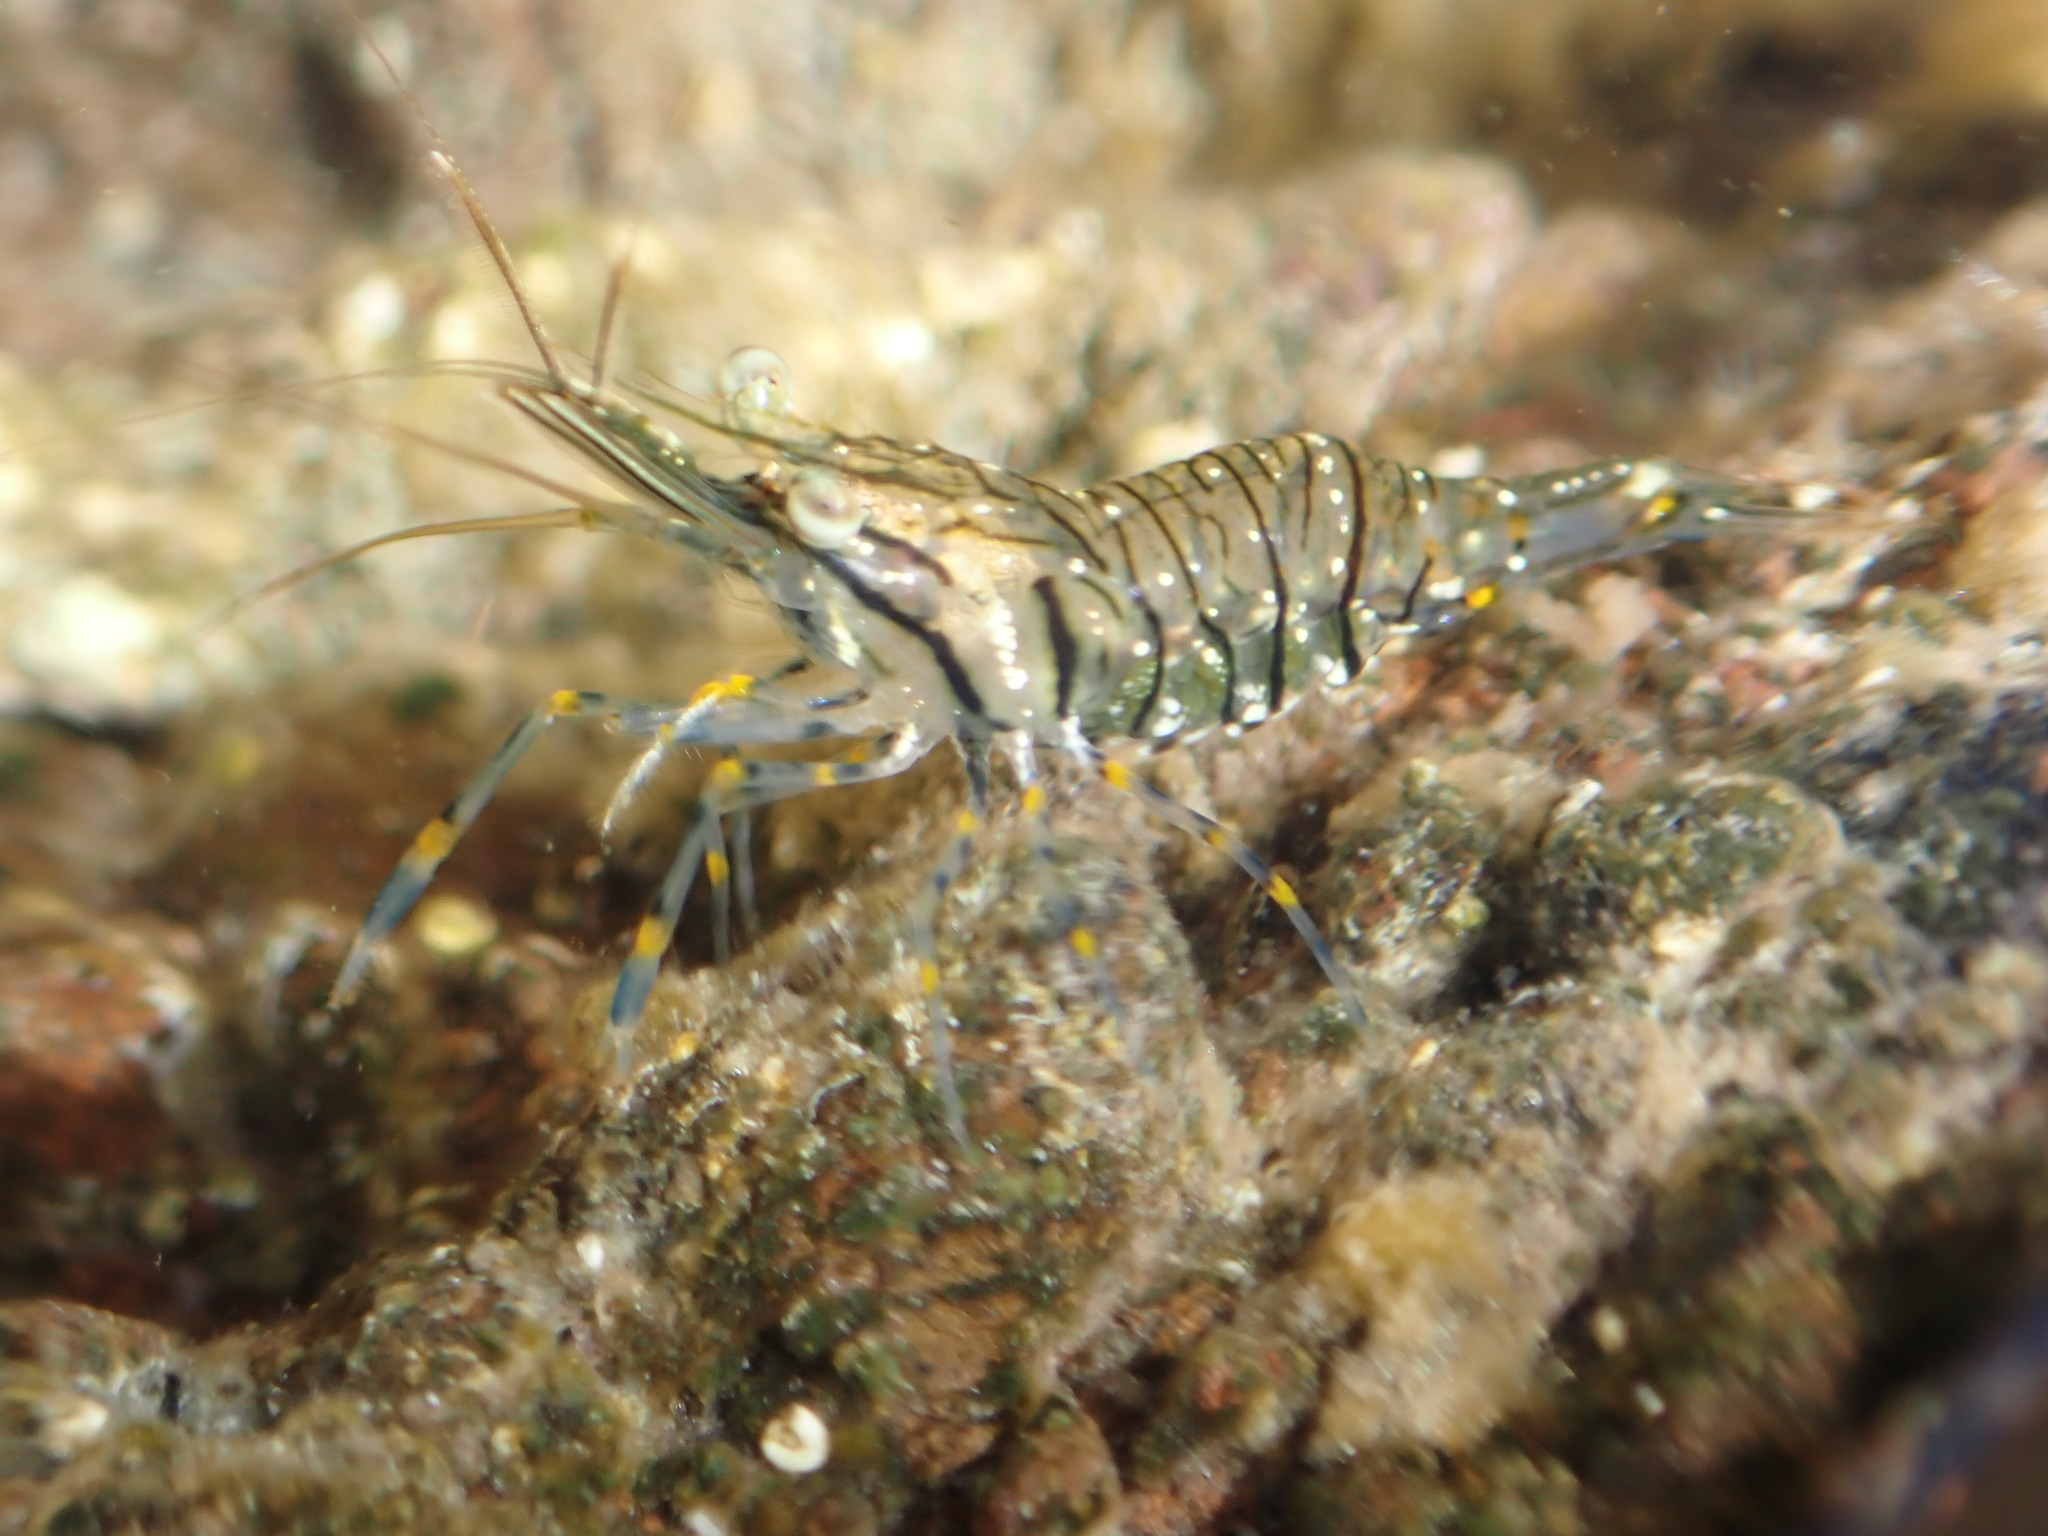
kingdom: Animalia
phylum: Arthropoda
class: Malacostraca
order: Decapoda
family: Palaemonidae
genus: Palaemon
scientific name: Palaemon elegans
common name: Grass prawm
